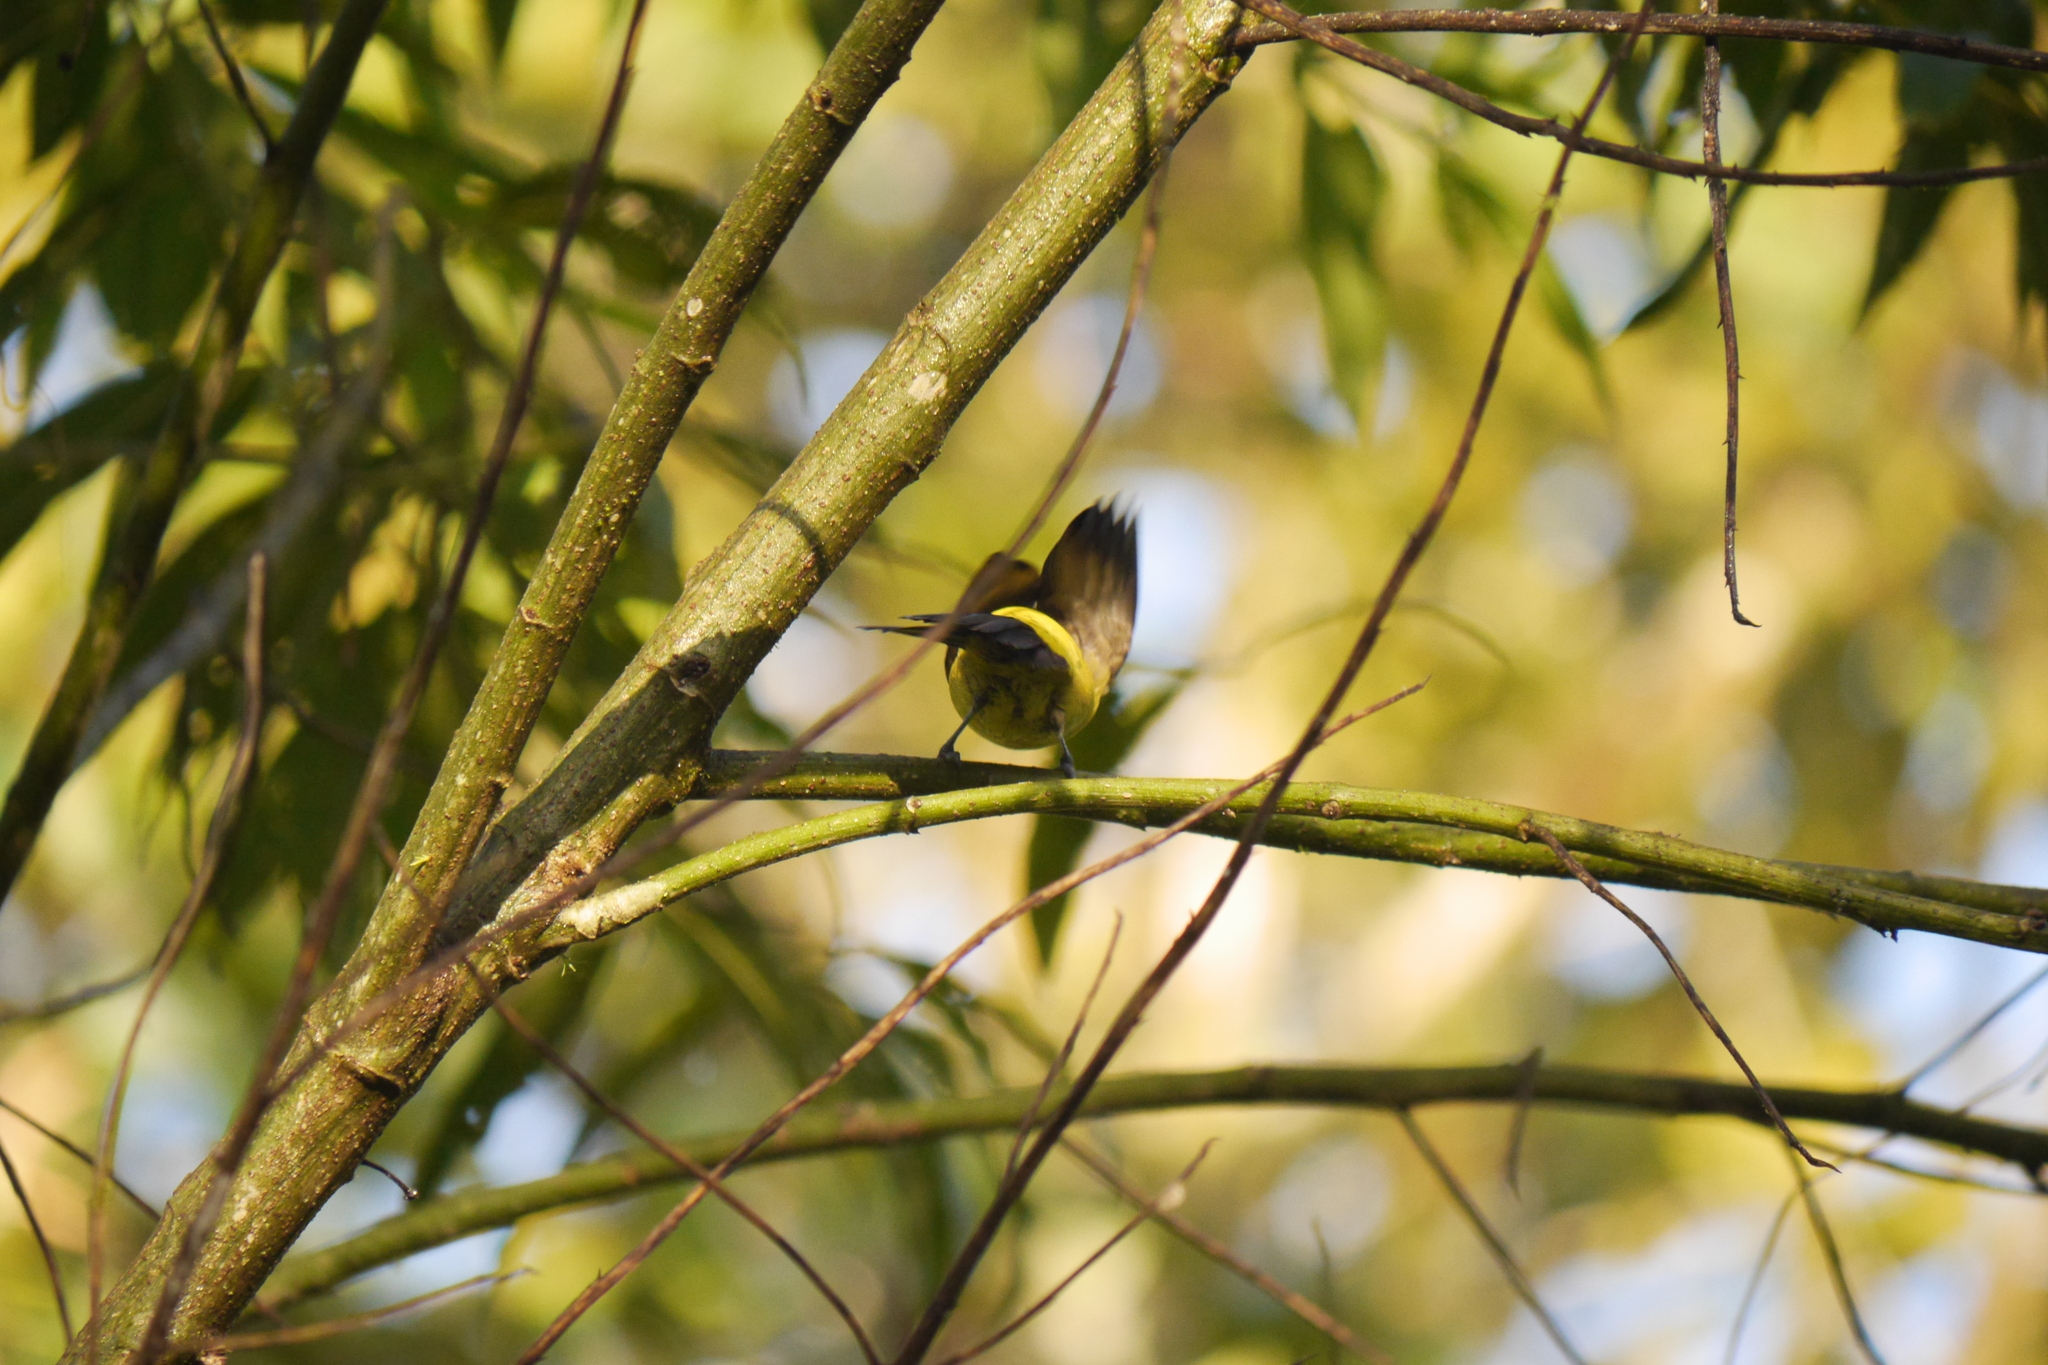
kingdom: Animalia
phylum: Chordata
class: Aves
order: Passeriformes
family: Thraupidae
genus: Tangara
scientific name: Tangara arthus
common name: Golden tanager
